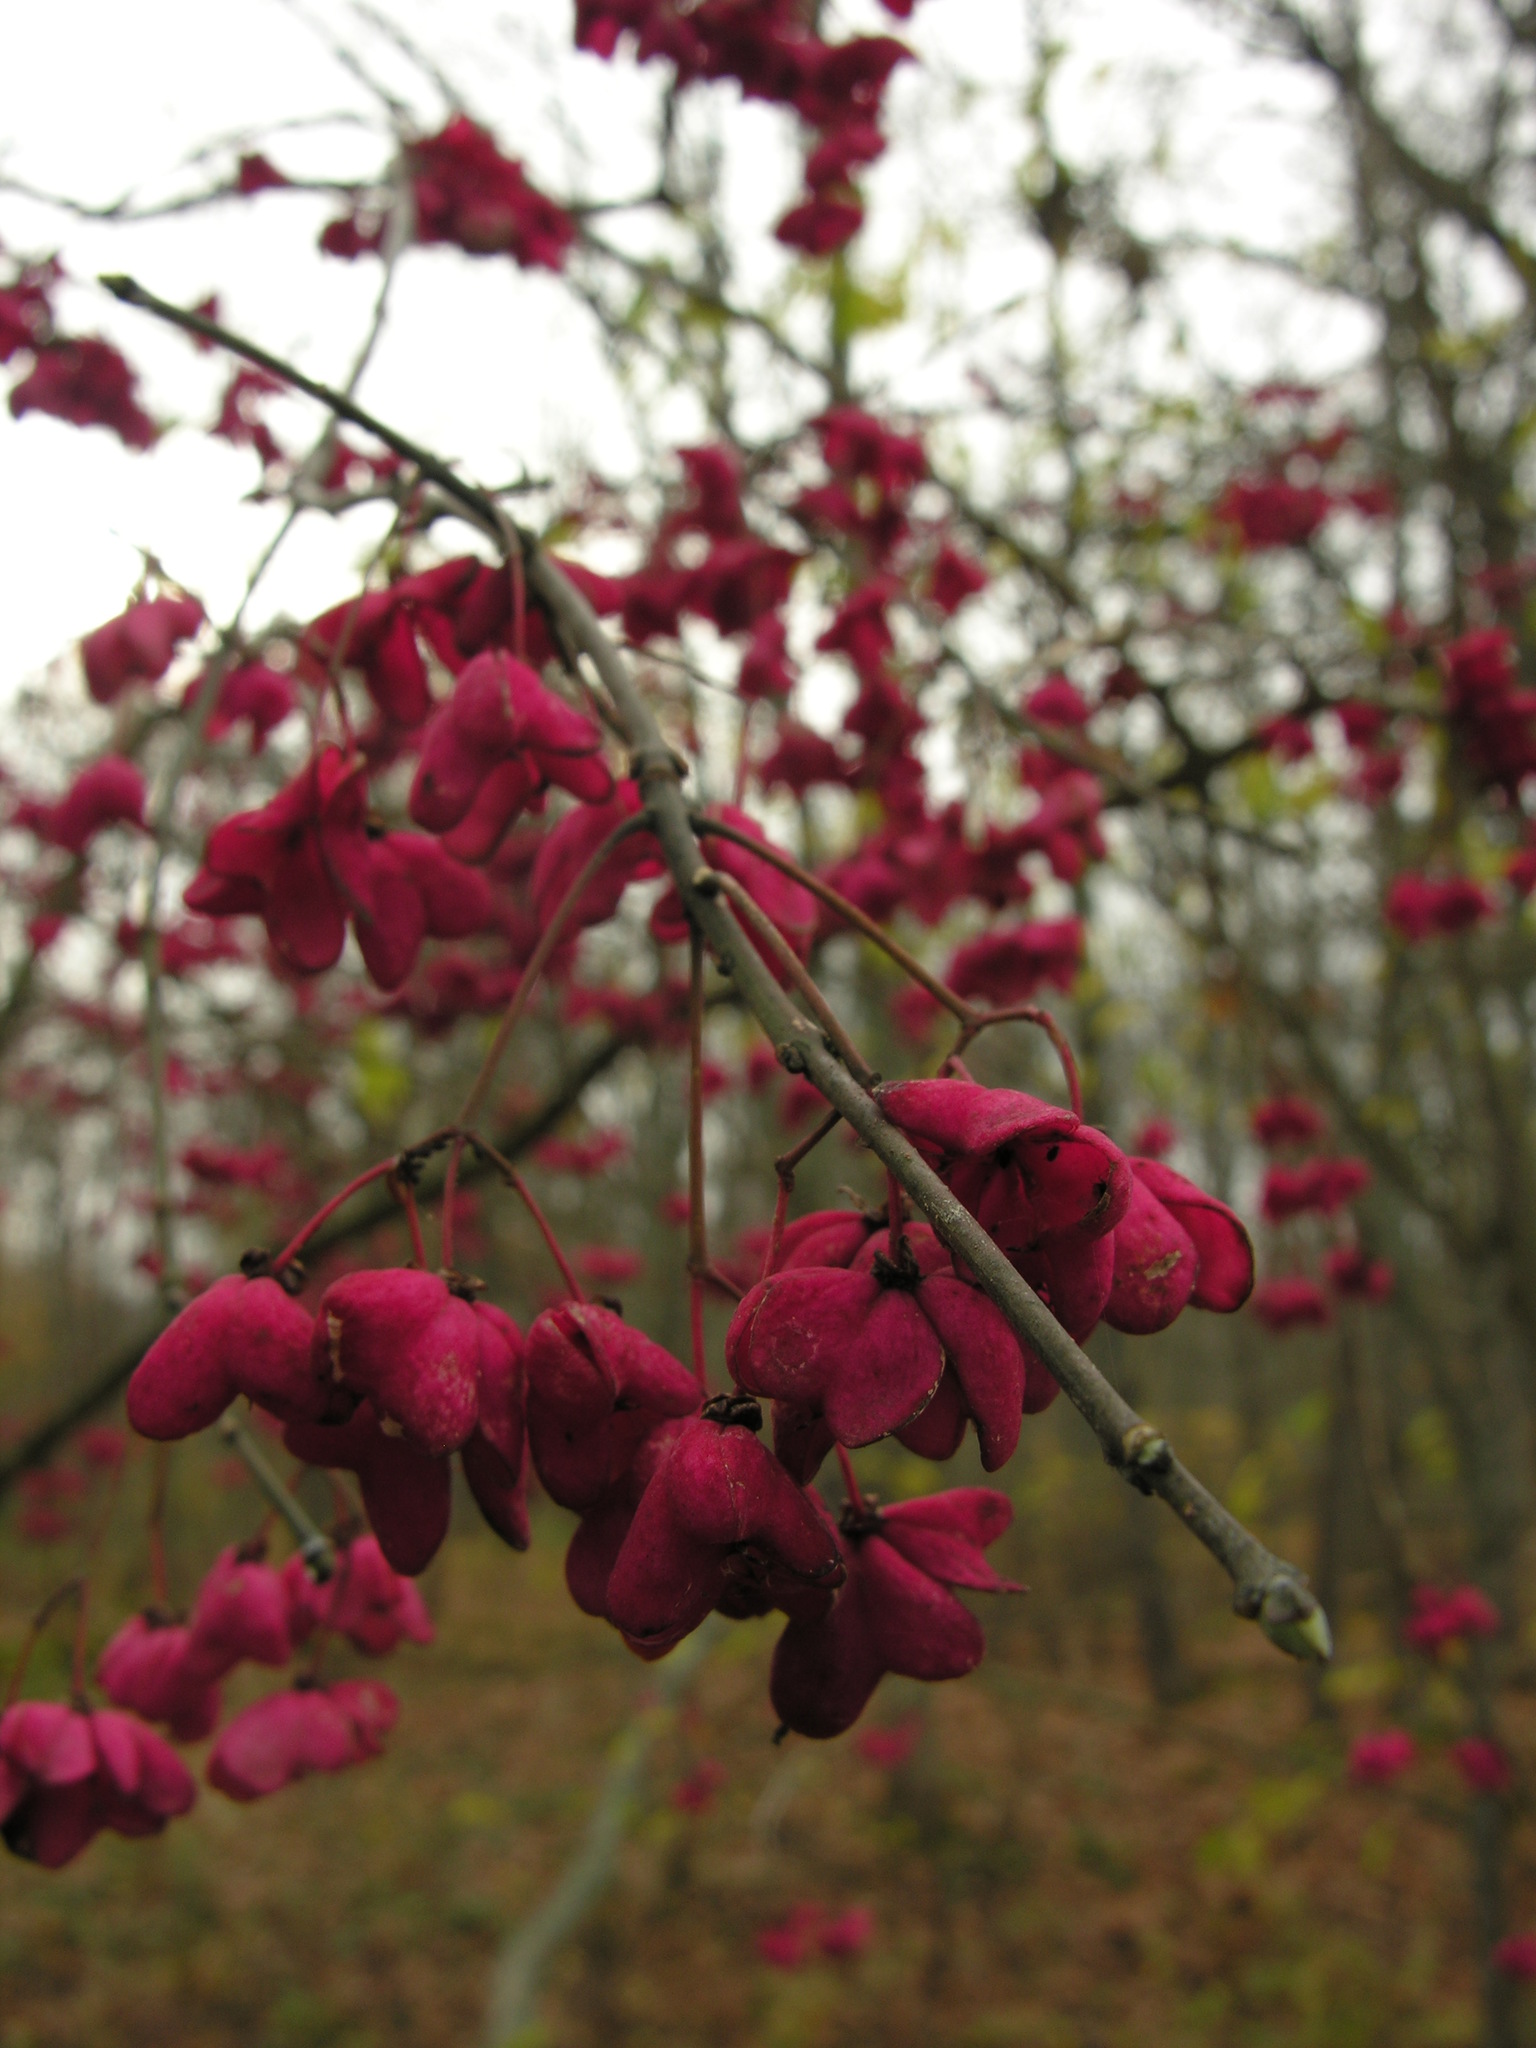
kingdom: Plantae
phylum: Tracheophyta
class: Magnoliopsida
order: Celastrales
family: Celastraceae
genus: Euonymus
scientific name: Euonymus europaeus
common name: Spindle
